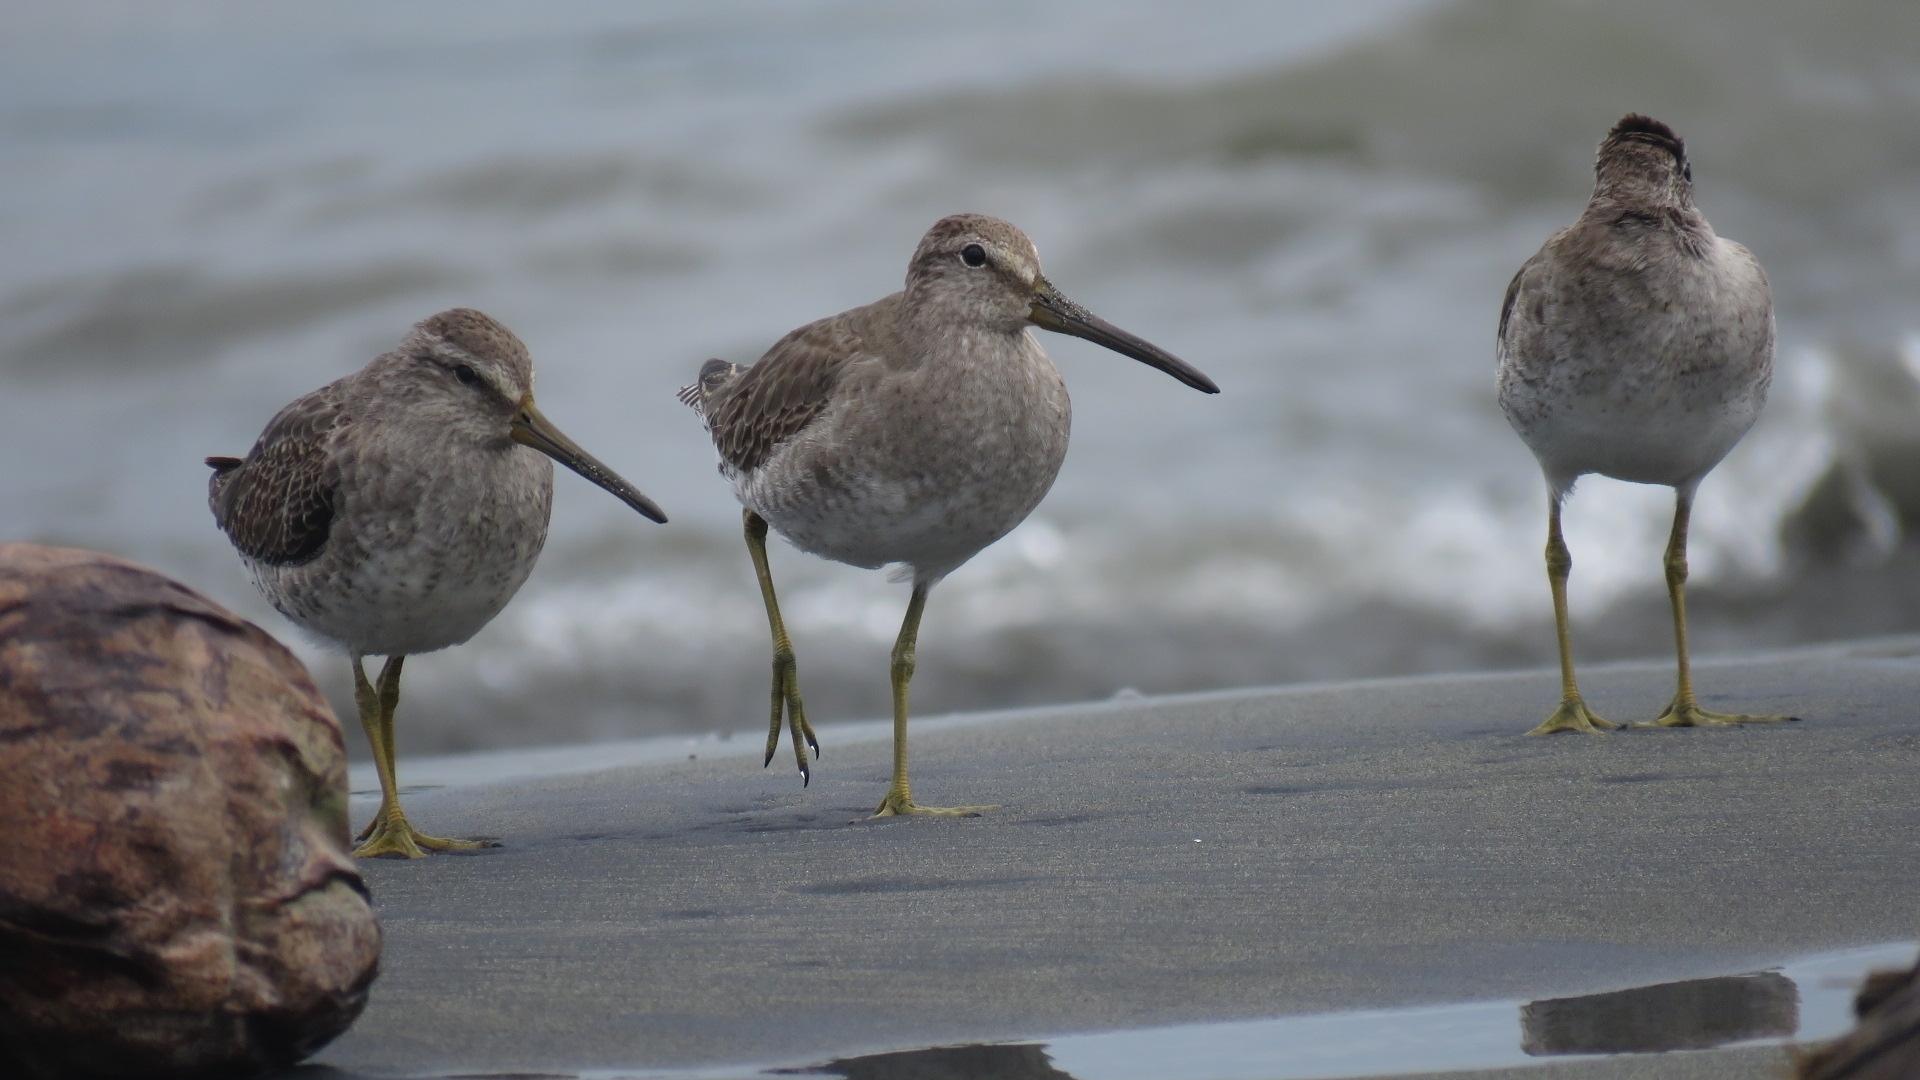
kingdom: Animalia
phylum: Chordata
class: Aves
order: Charadriiformes
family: Scolopacidae
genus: Limnodromus
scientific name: Limnodromus griseus
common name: Short-billed dowitcher
